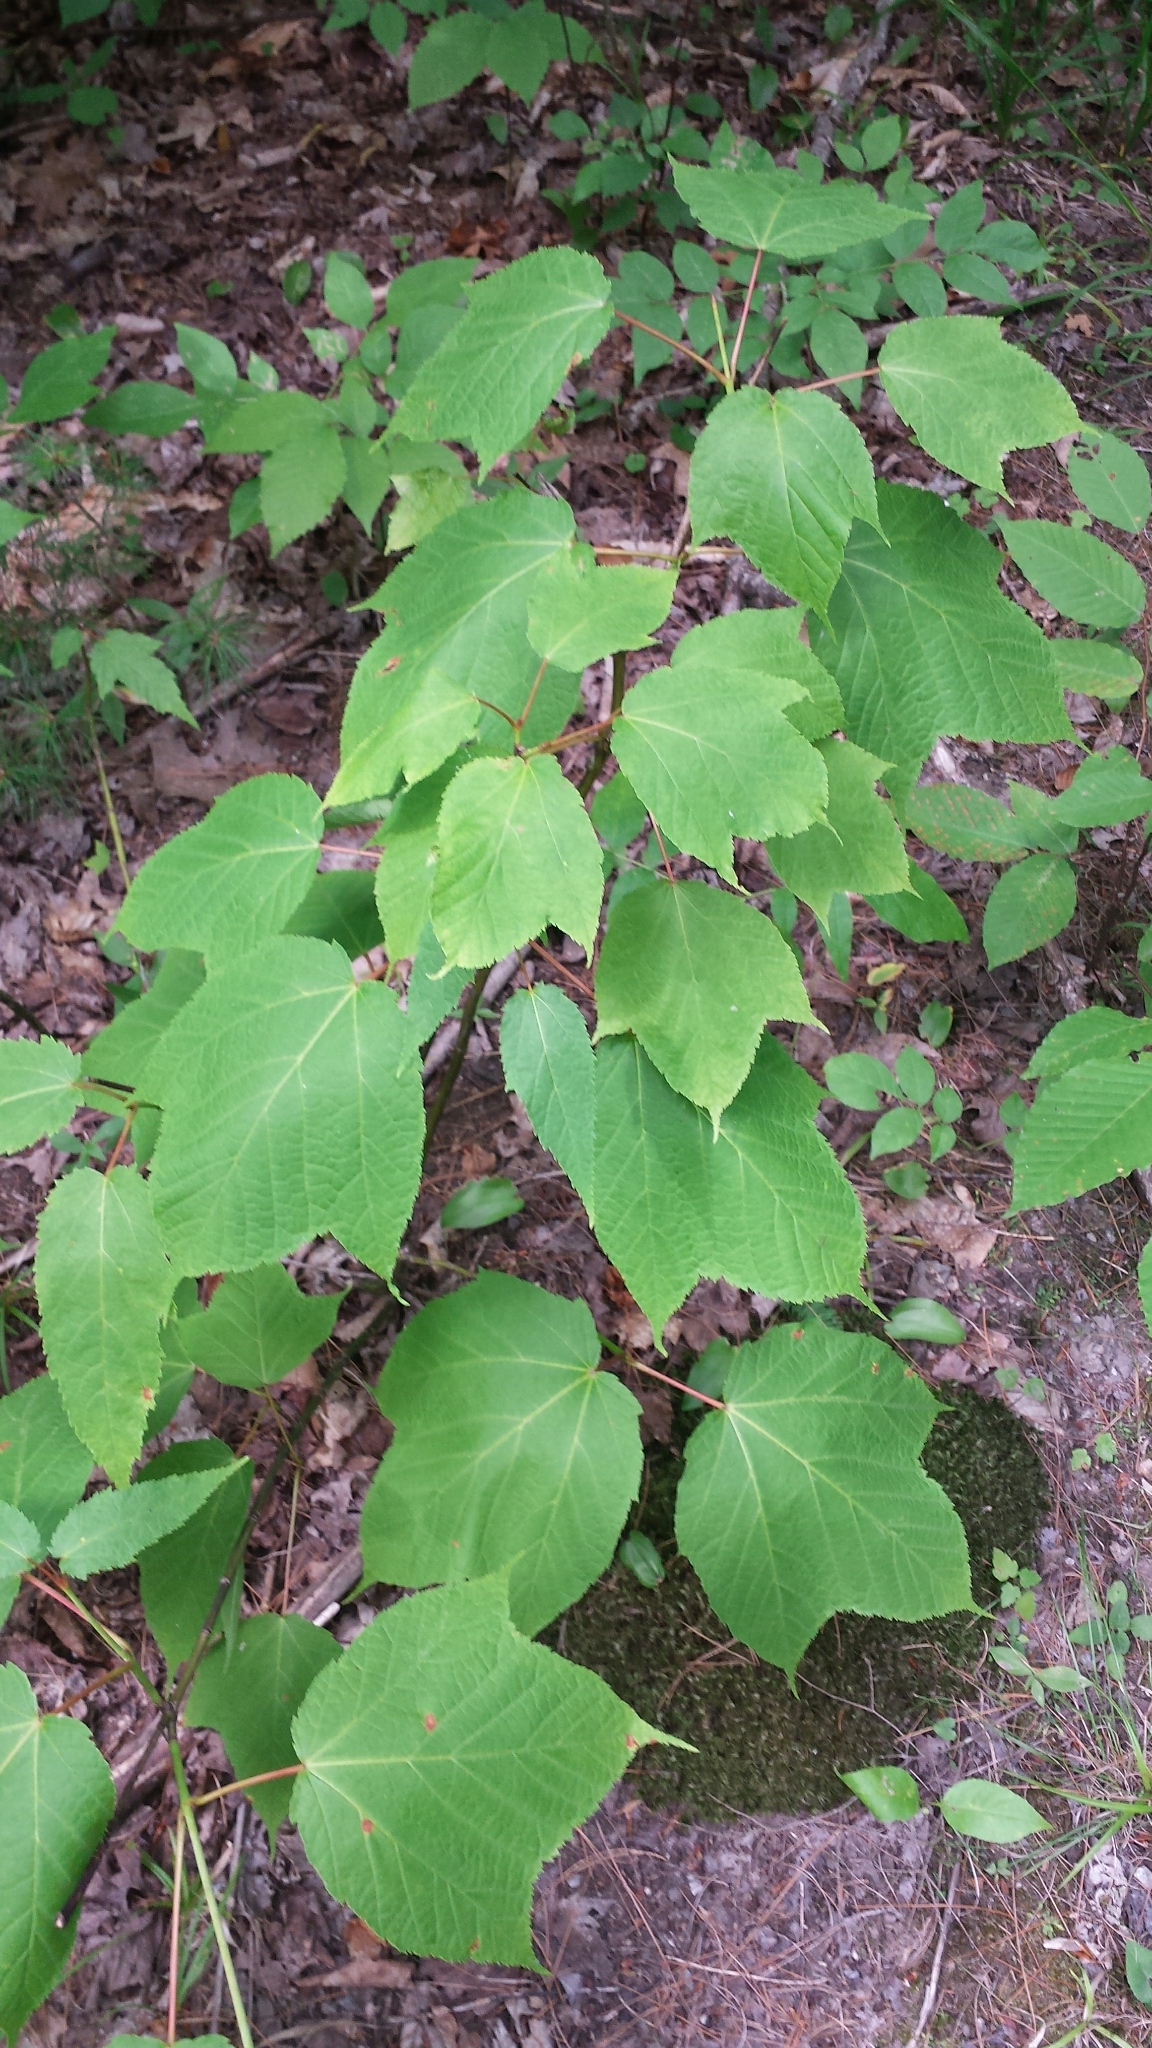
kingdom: Plantae
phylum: Tracheophyta
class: Magnoliopsida
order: Sapindales
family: Sapindaceae
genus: Acer
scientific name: Acer pensylvanicum
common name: Moosewood
